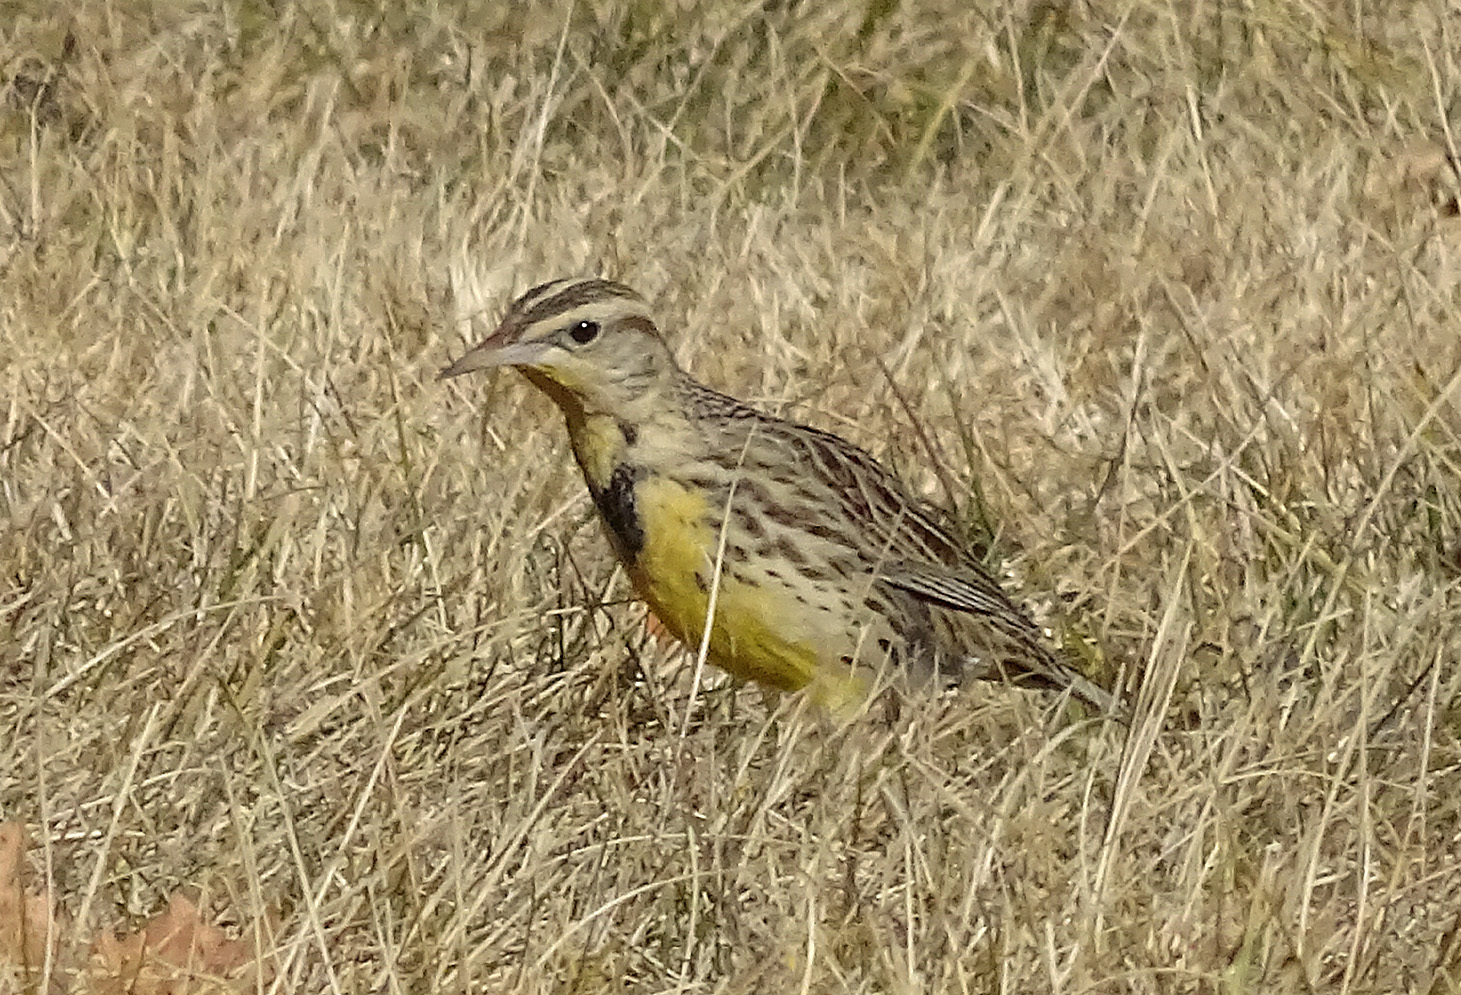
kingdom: Animalia
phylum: Chordata
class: Aves
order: Passeriformes
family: Icteridae
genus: Sturnella
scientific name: Sturnella neglecta
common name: Western meadowlark
